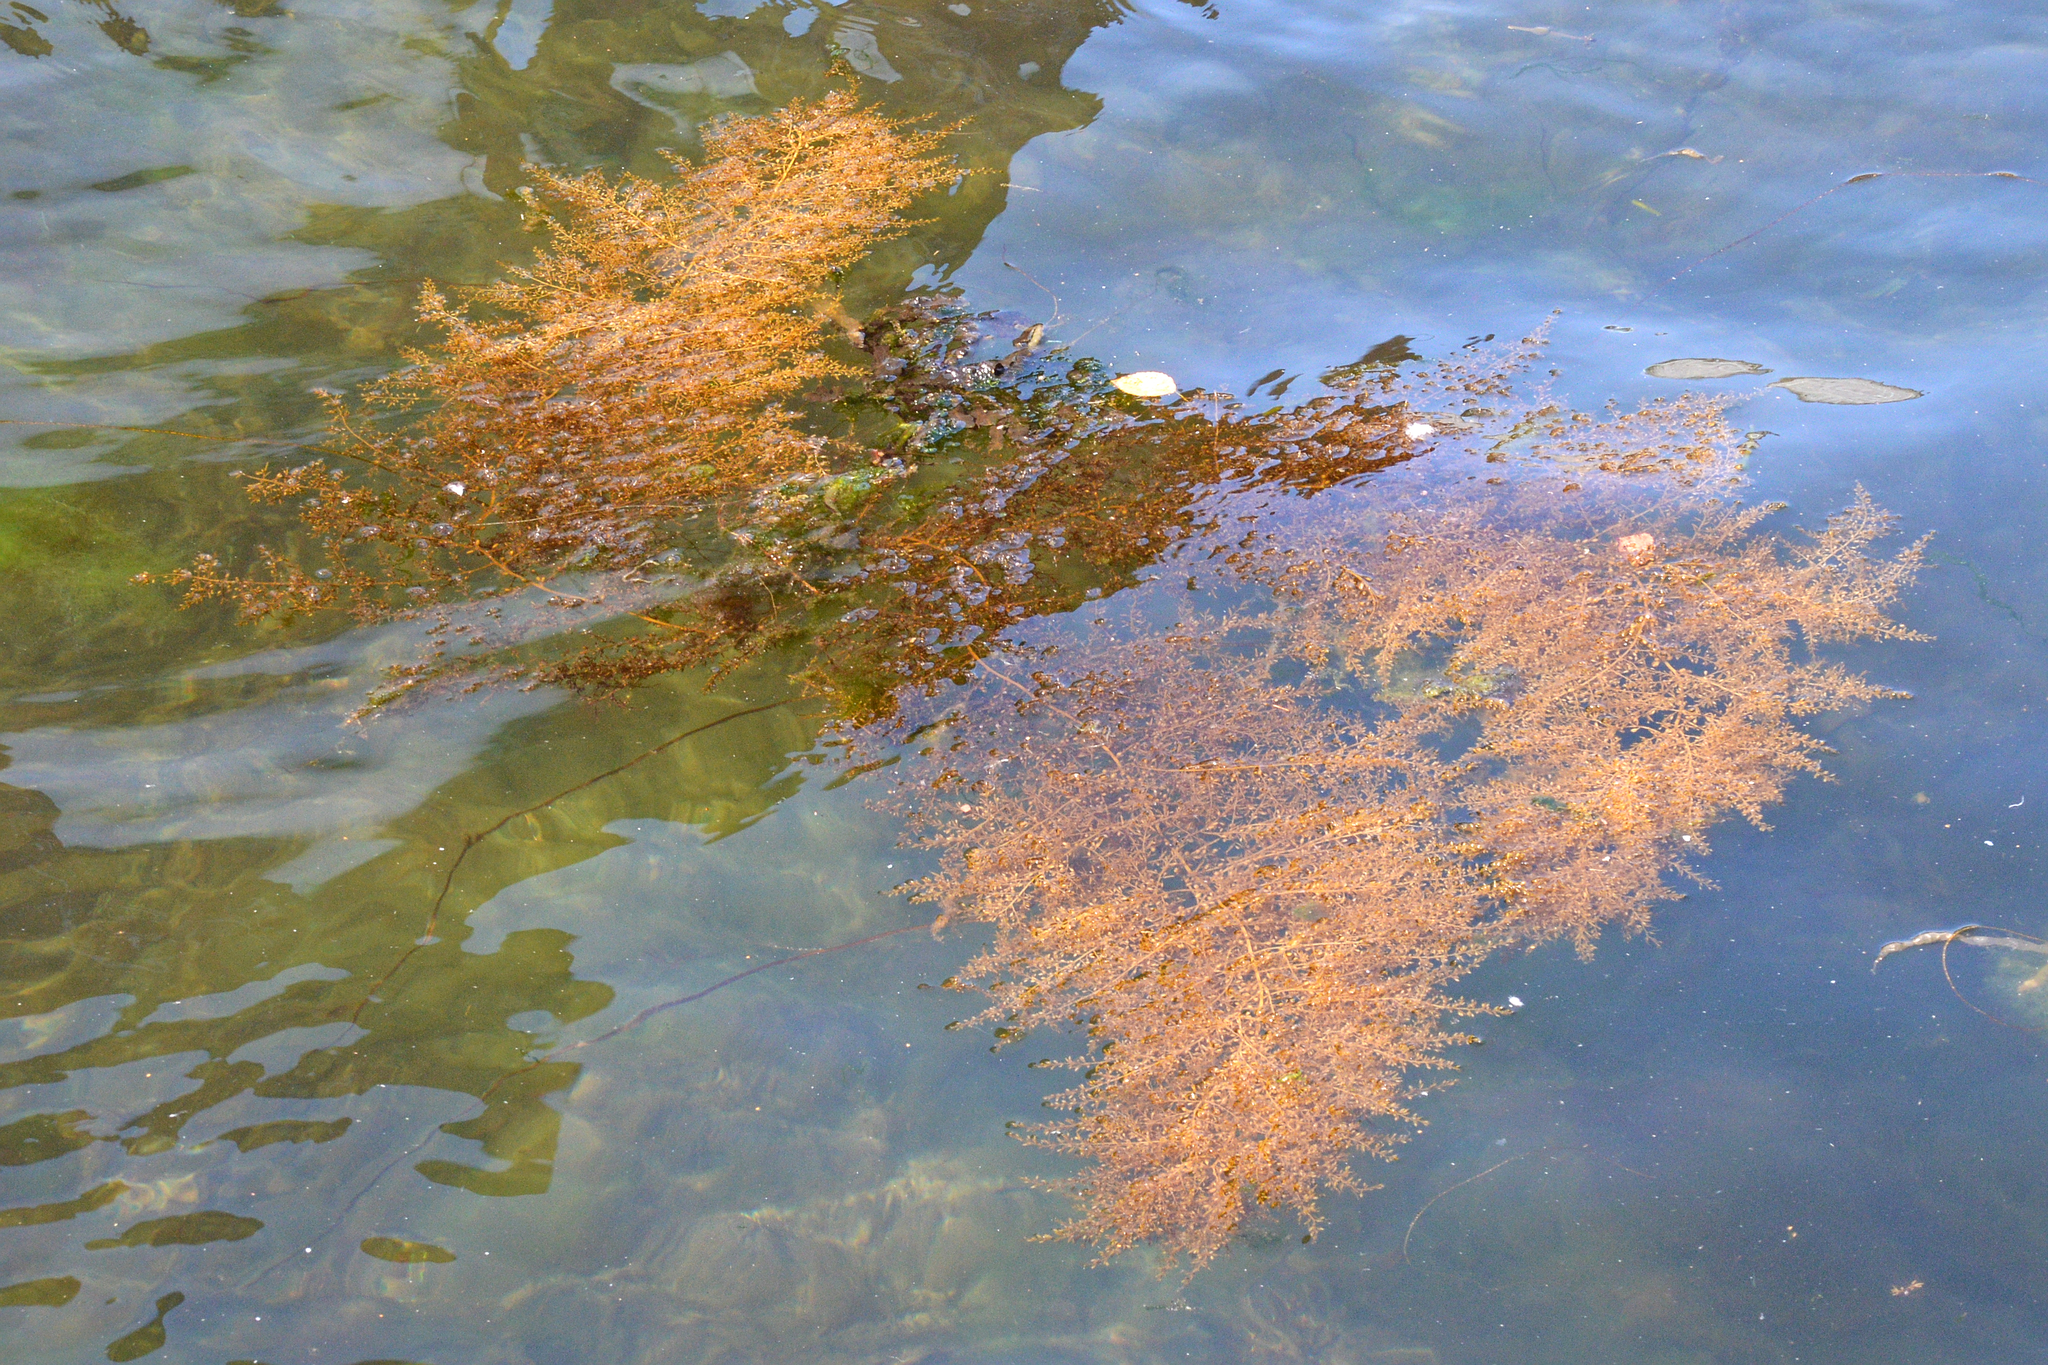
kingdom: Chromista
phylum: Ochrophyta
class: Phaeophyceae
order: Fucales
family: Sargassaceae
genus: Sargassum
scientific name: Sargassum muticum
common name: Japweed
